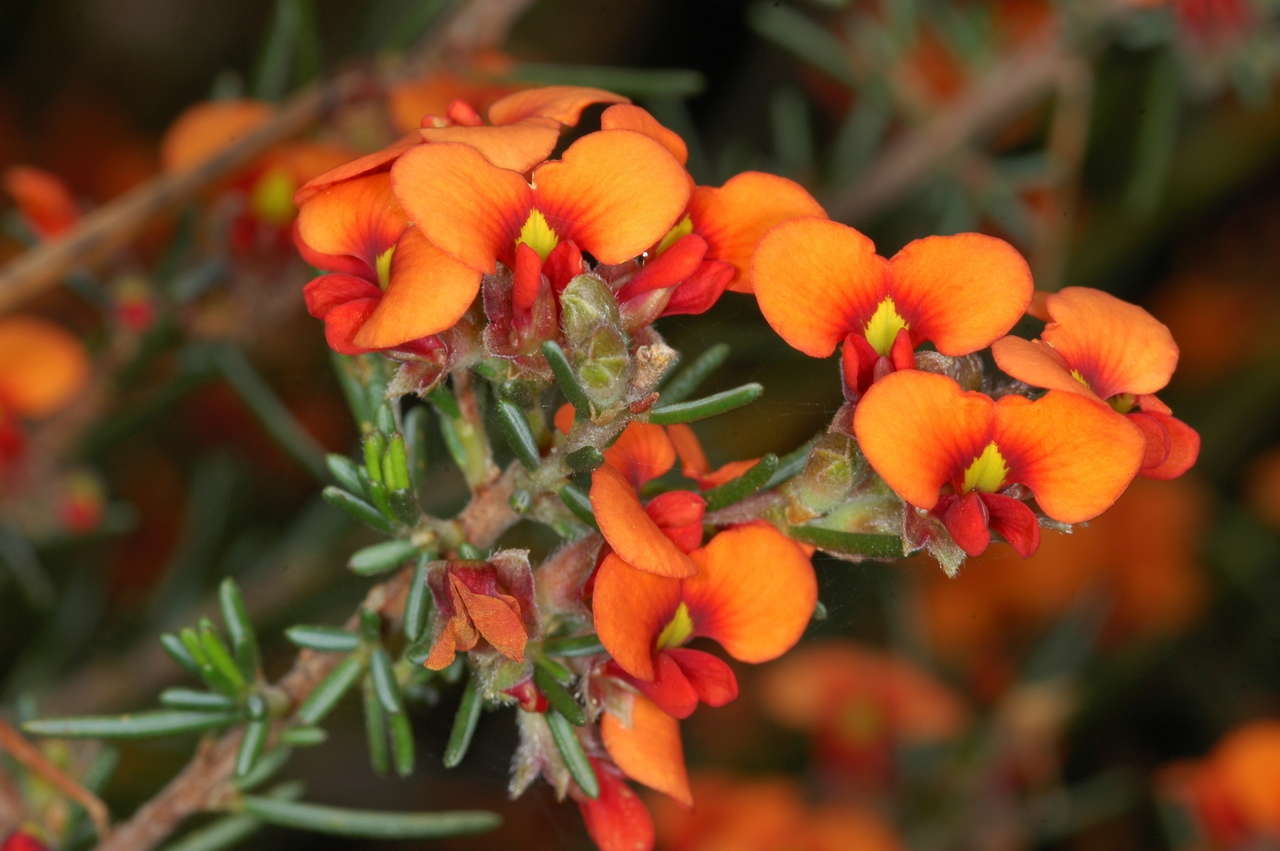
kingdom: Plantae
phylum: Tracheophyta
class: Magnoliopsida
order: Fabales
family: Fabaceae
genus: Dillwynia
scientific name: Dillwynia sericea
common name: Showy parrot-pea
